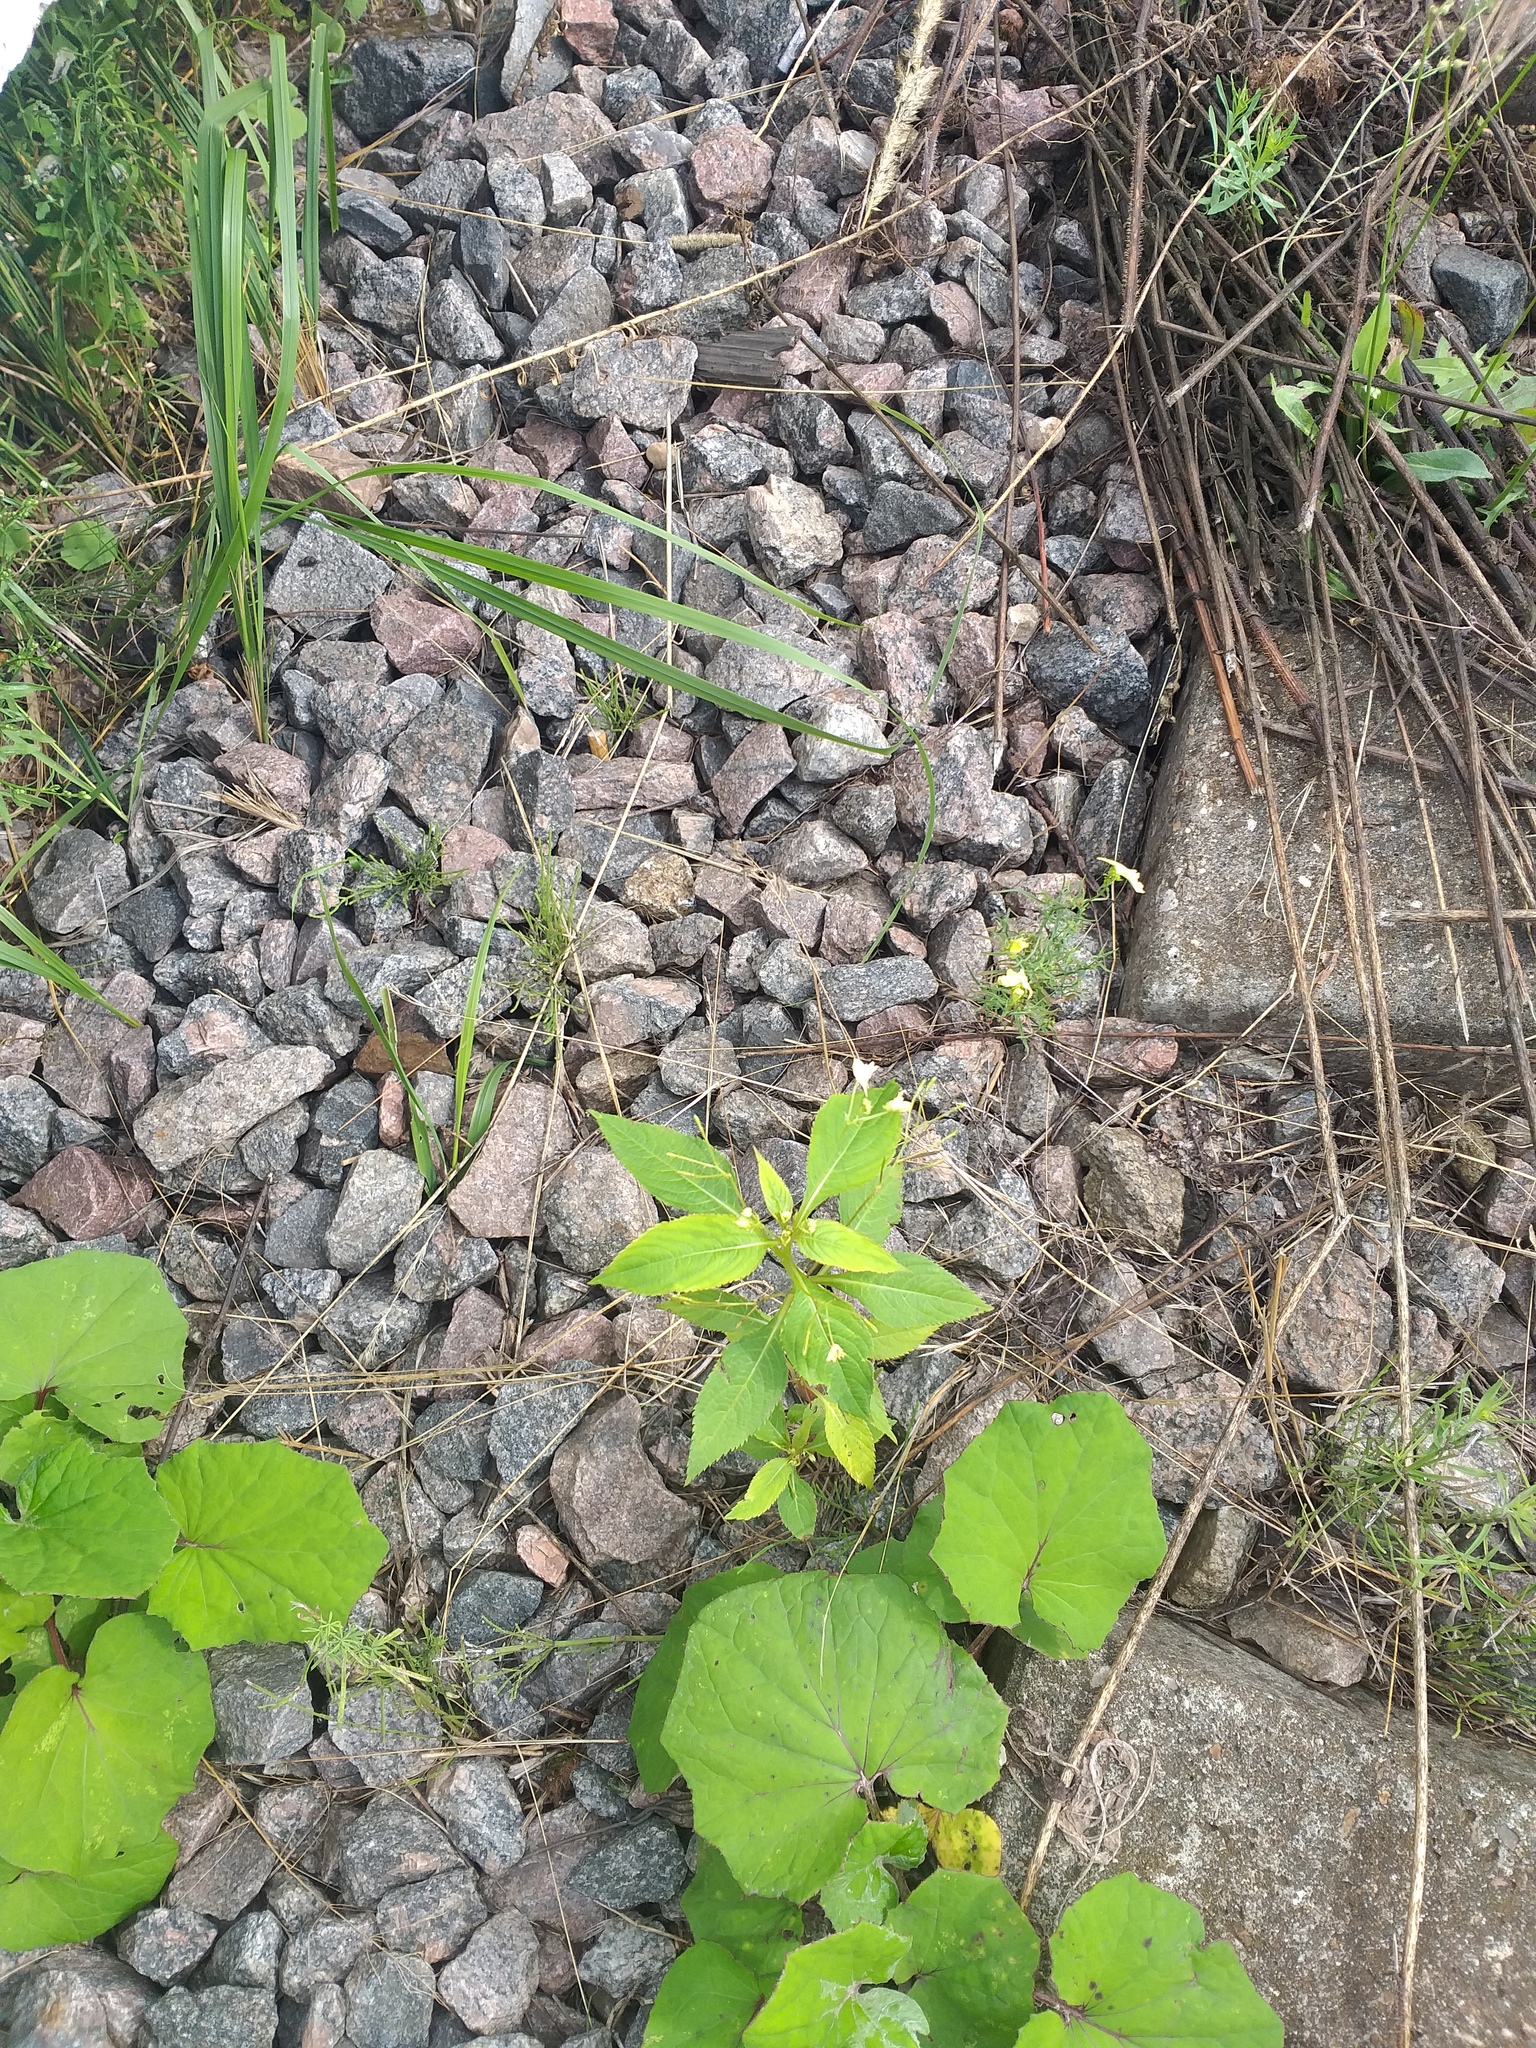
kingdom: Plantae
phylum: Tracheophyta
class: Magnoliopsida
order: Ericales
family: Balsaminaceae
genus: Impatiens
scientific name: Impatiens parviflora
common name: Small balsam
